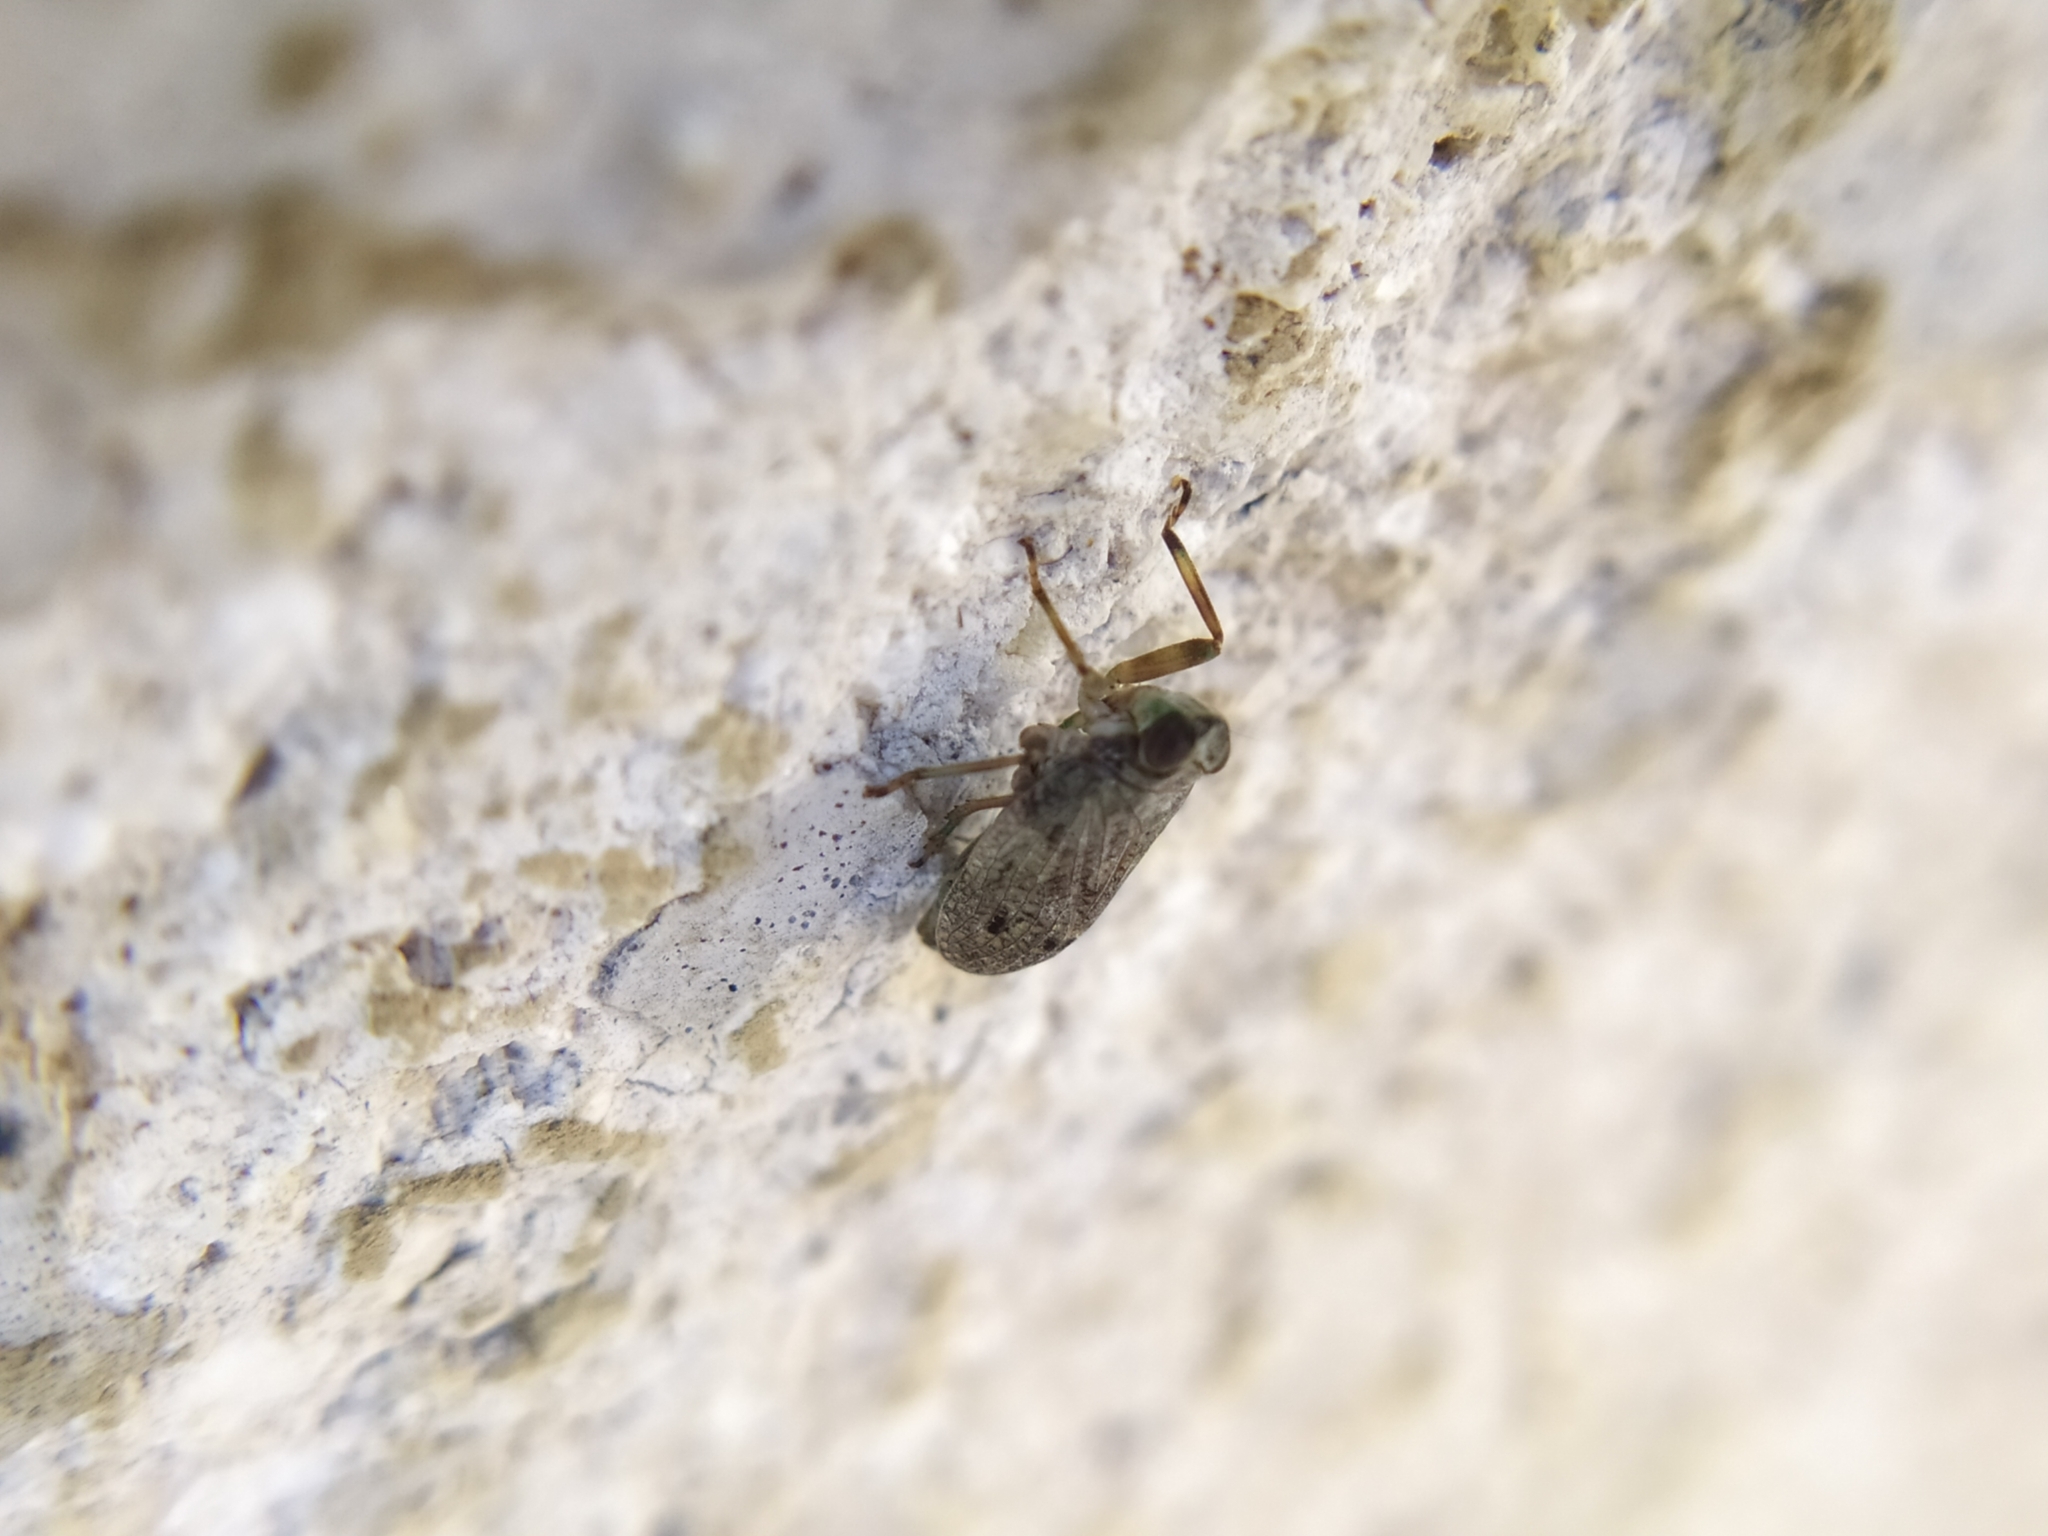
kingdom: Animalia
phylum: Arthropoda
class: Insecta
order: Hemiptera
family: Issidae
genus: Issus
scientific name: Issus coleoptratus
